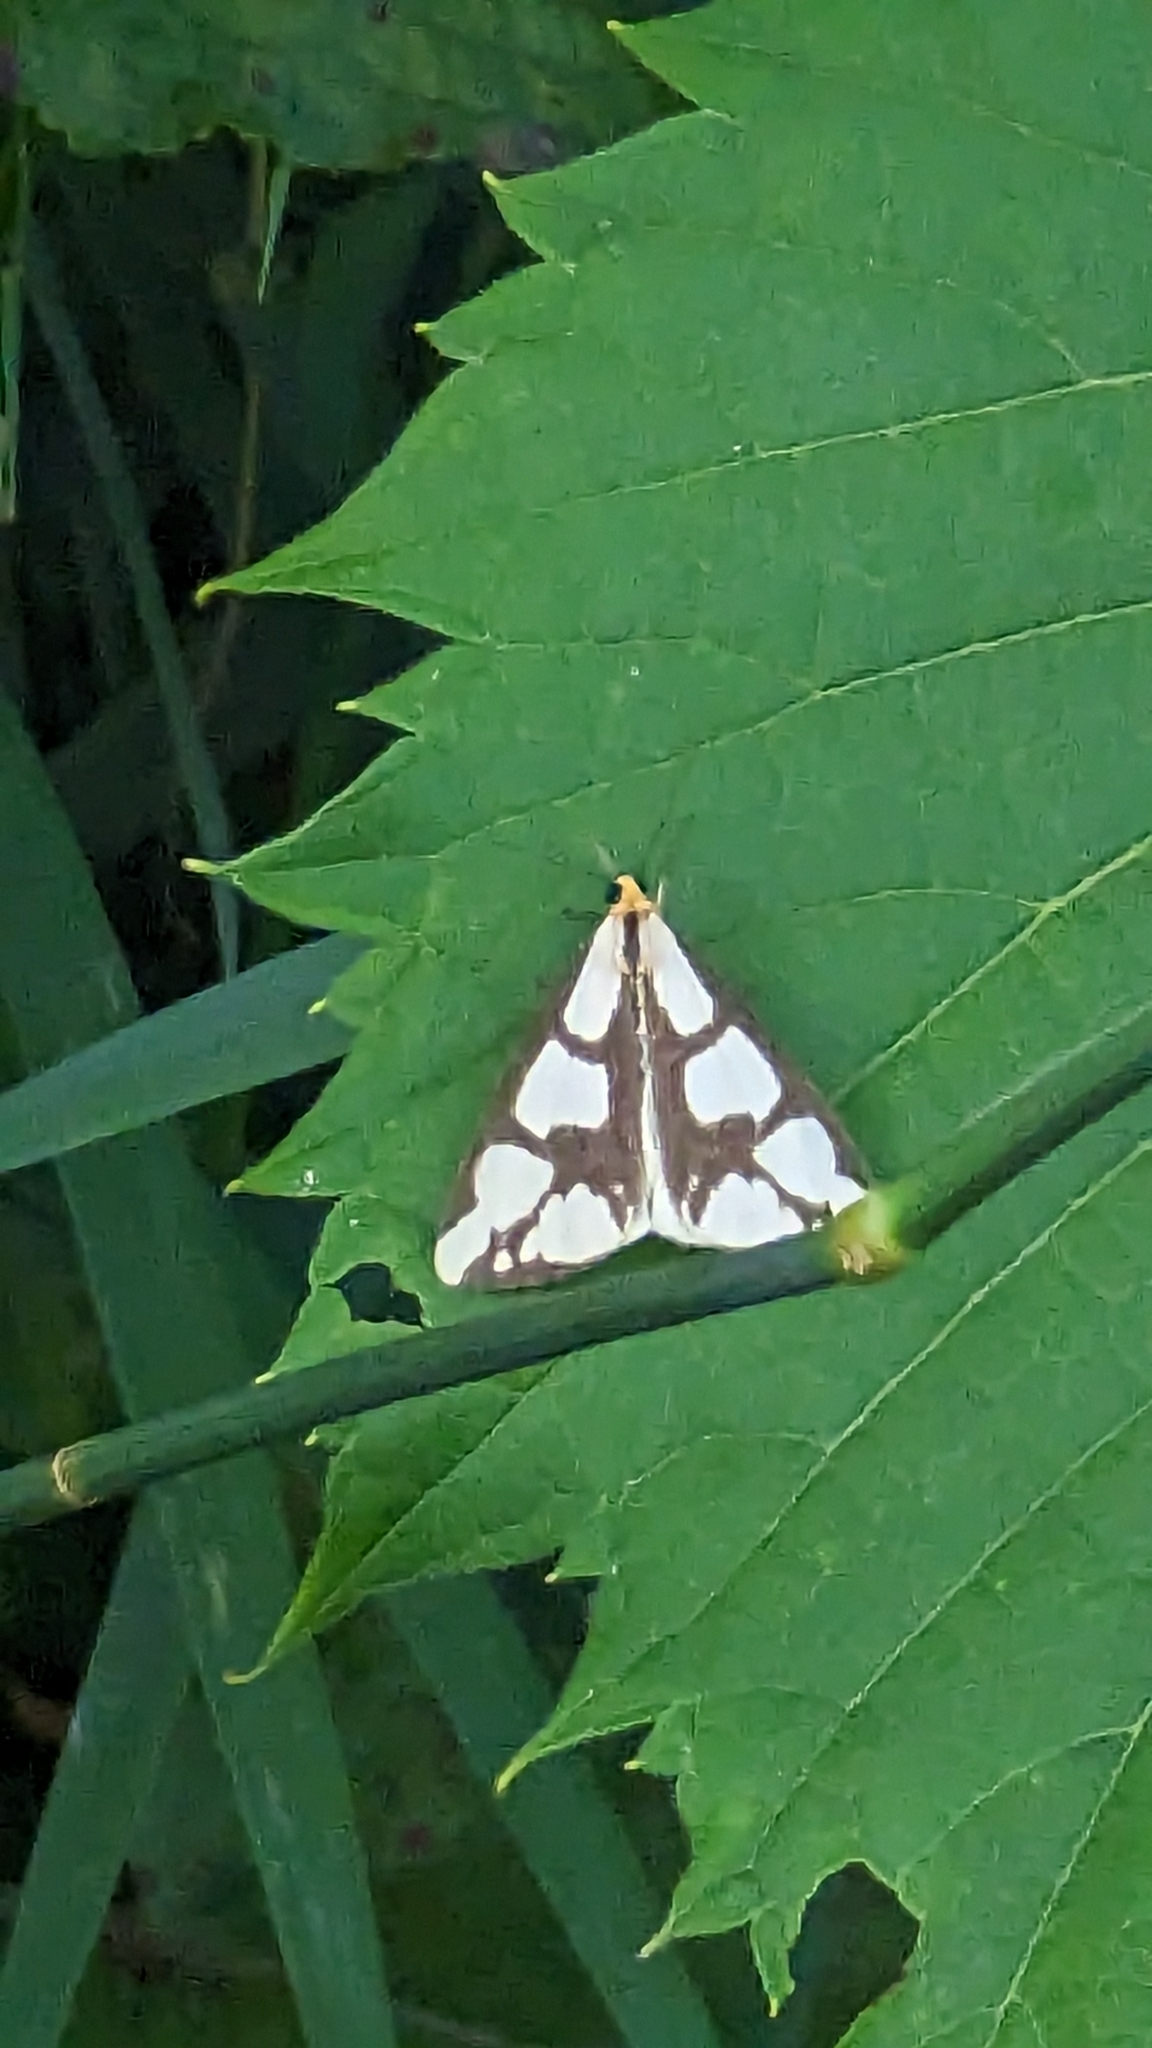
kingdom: Animalia
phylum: Arthropoda
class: Insecta
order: Lepidoptera
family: Erebidae
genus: Haploa
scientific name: Haploa lecontei
